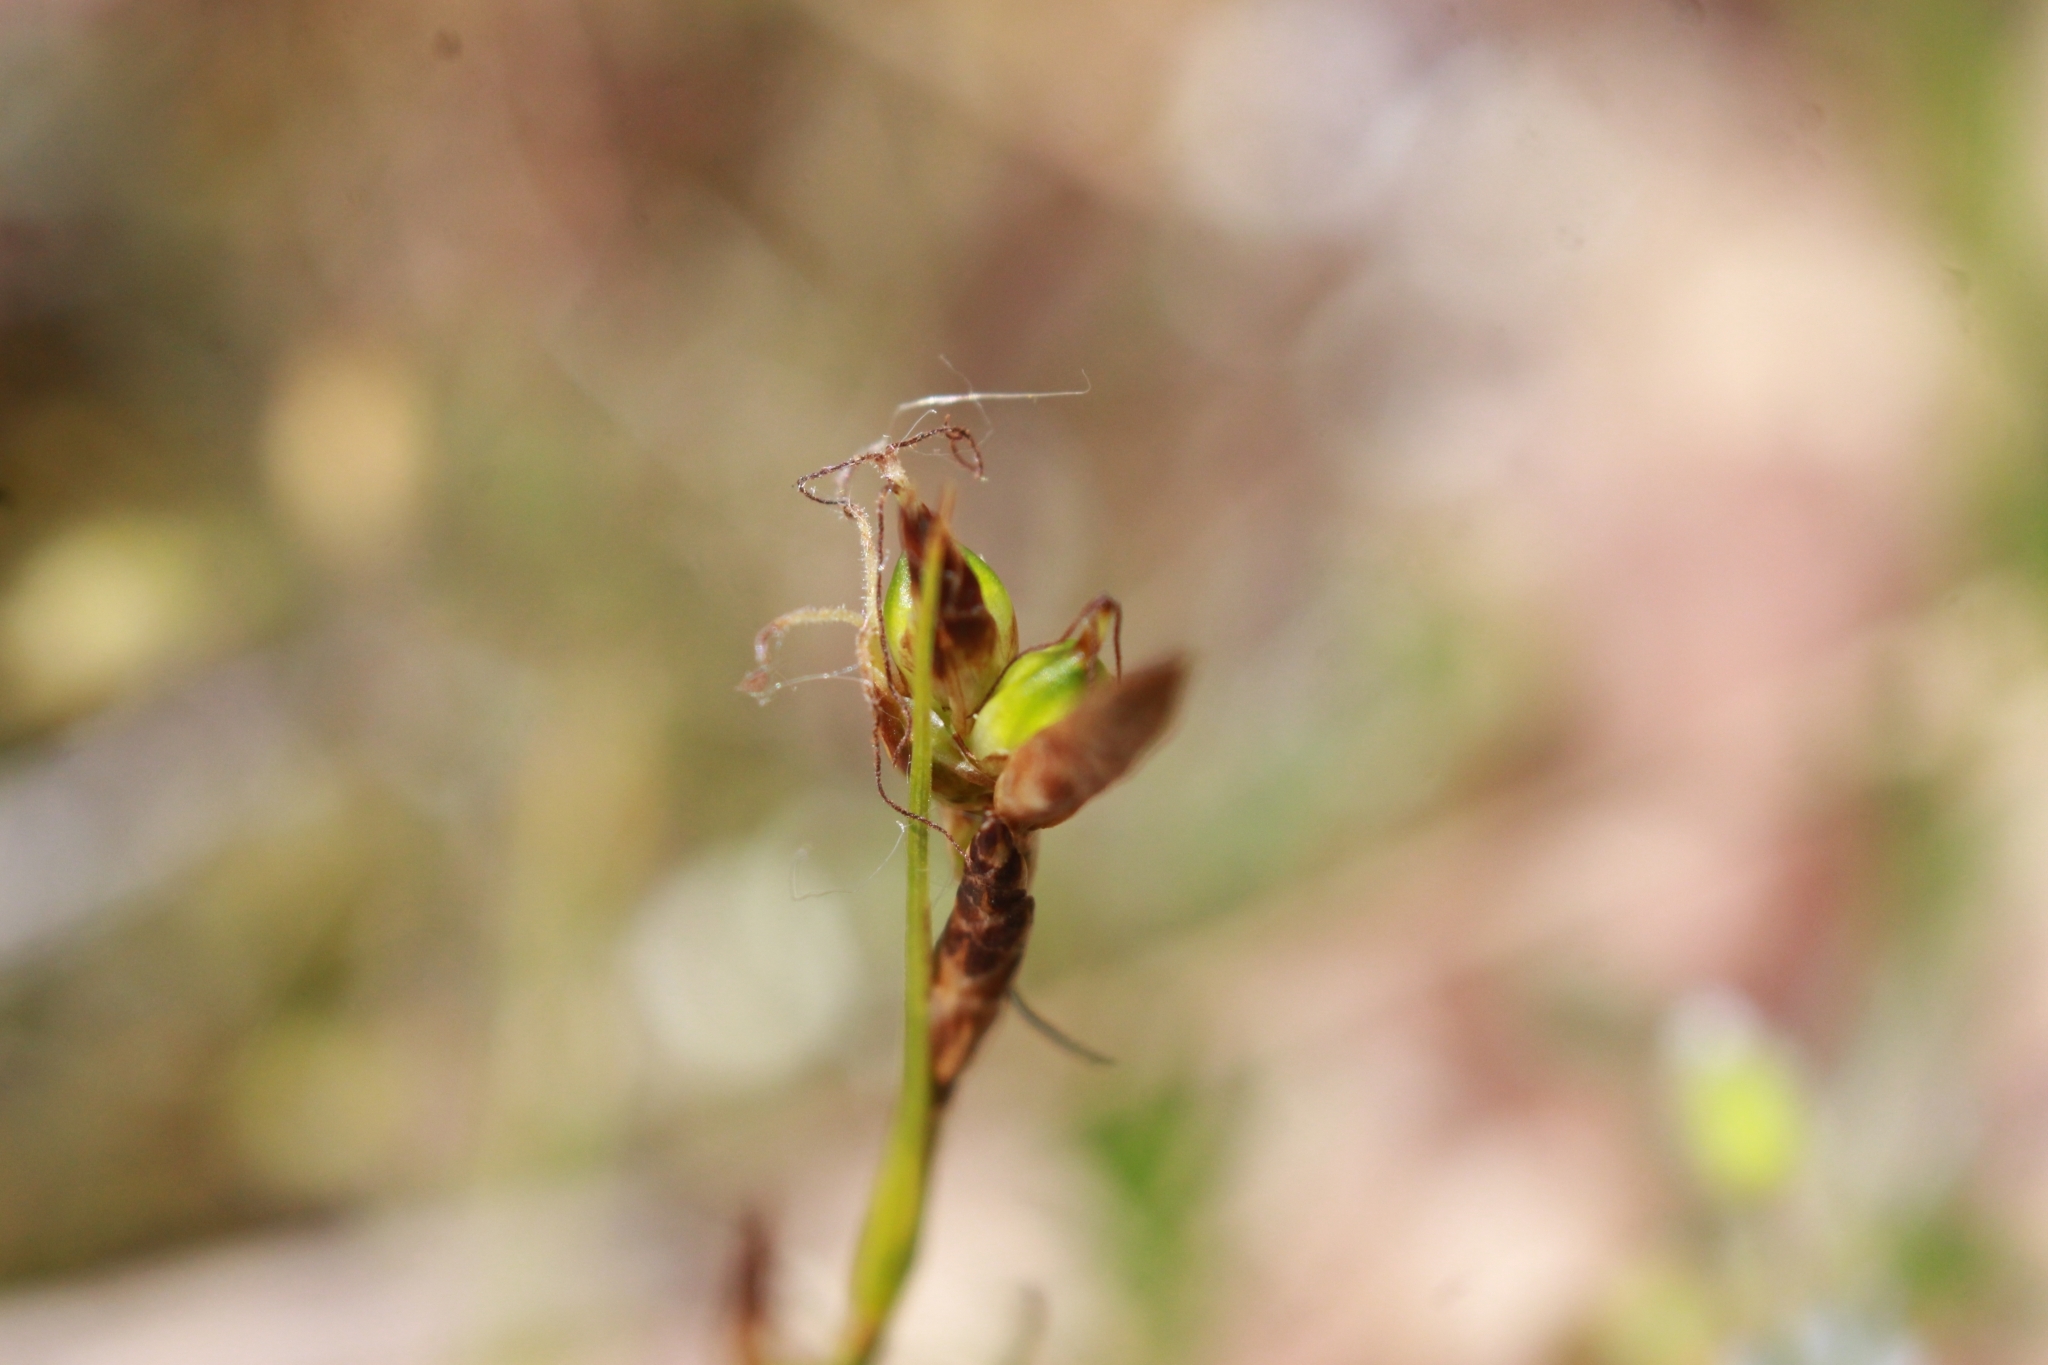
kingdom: Plantae
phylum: Tracheophyta
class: Liliopsida
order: Poales
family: Cyperaceae
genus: Carex
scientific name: Carex liparocarpos
